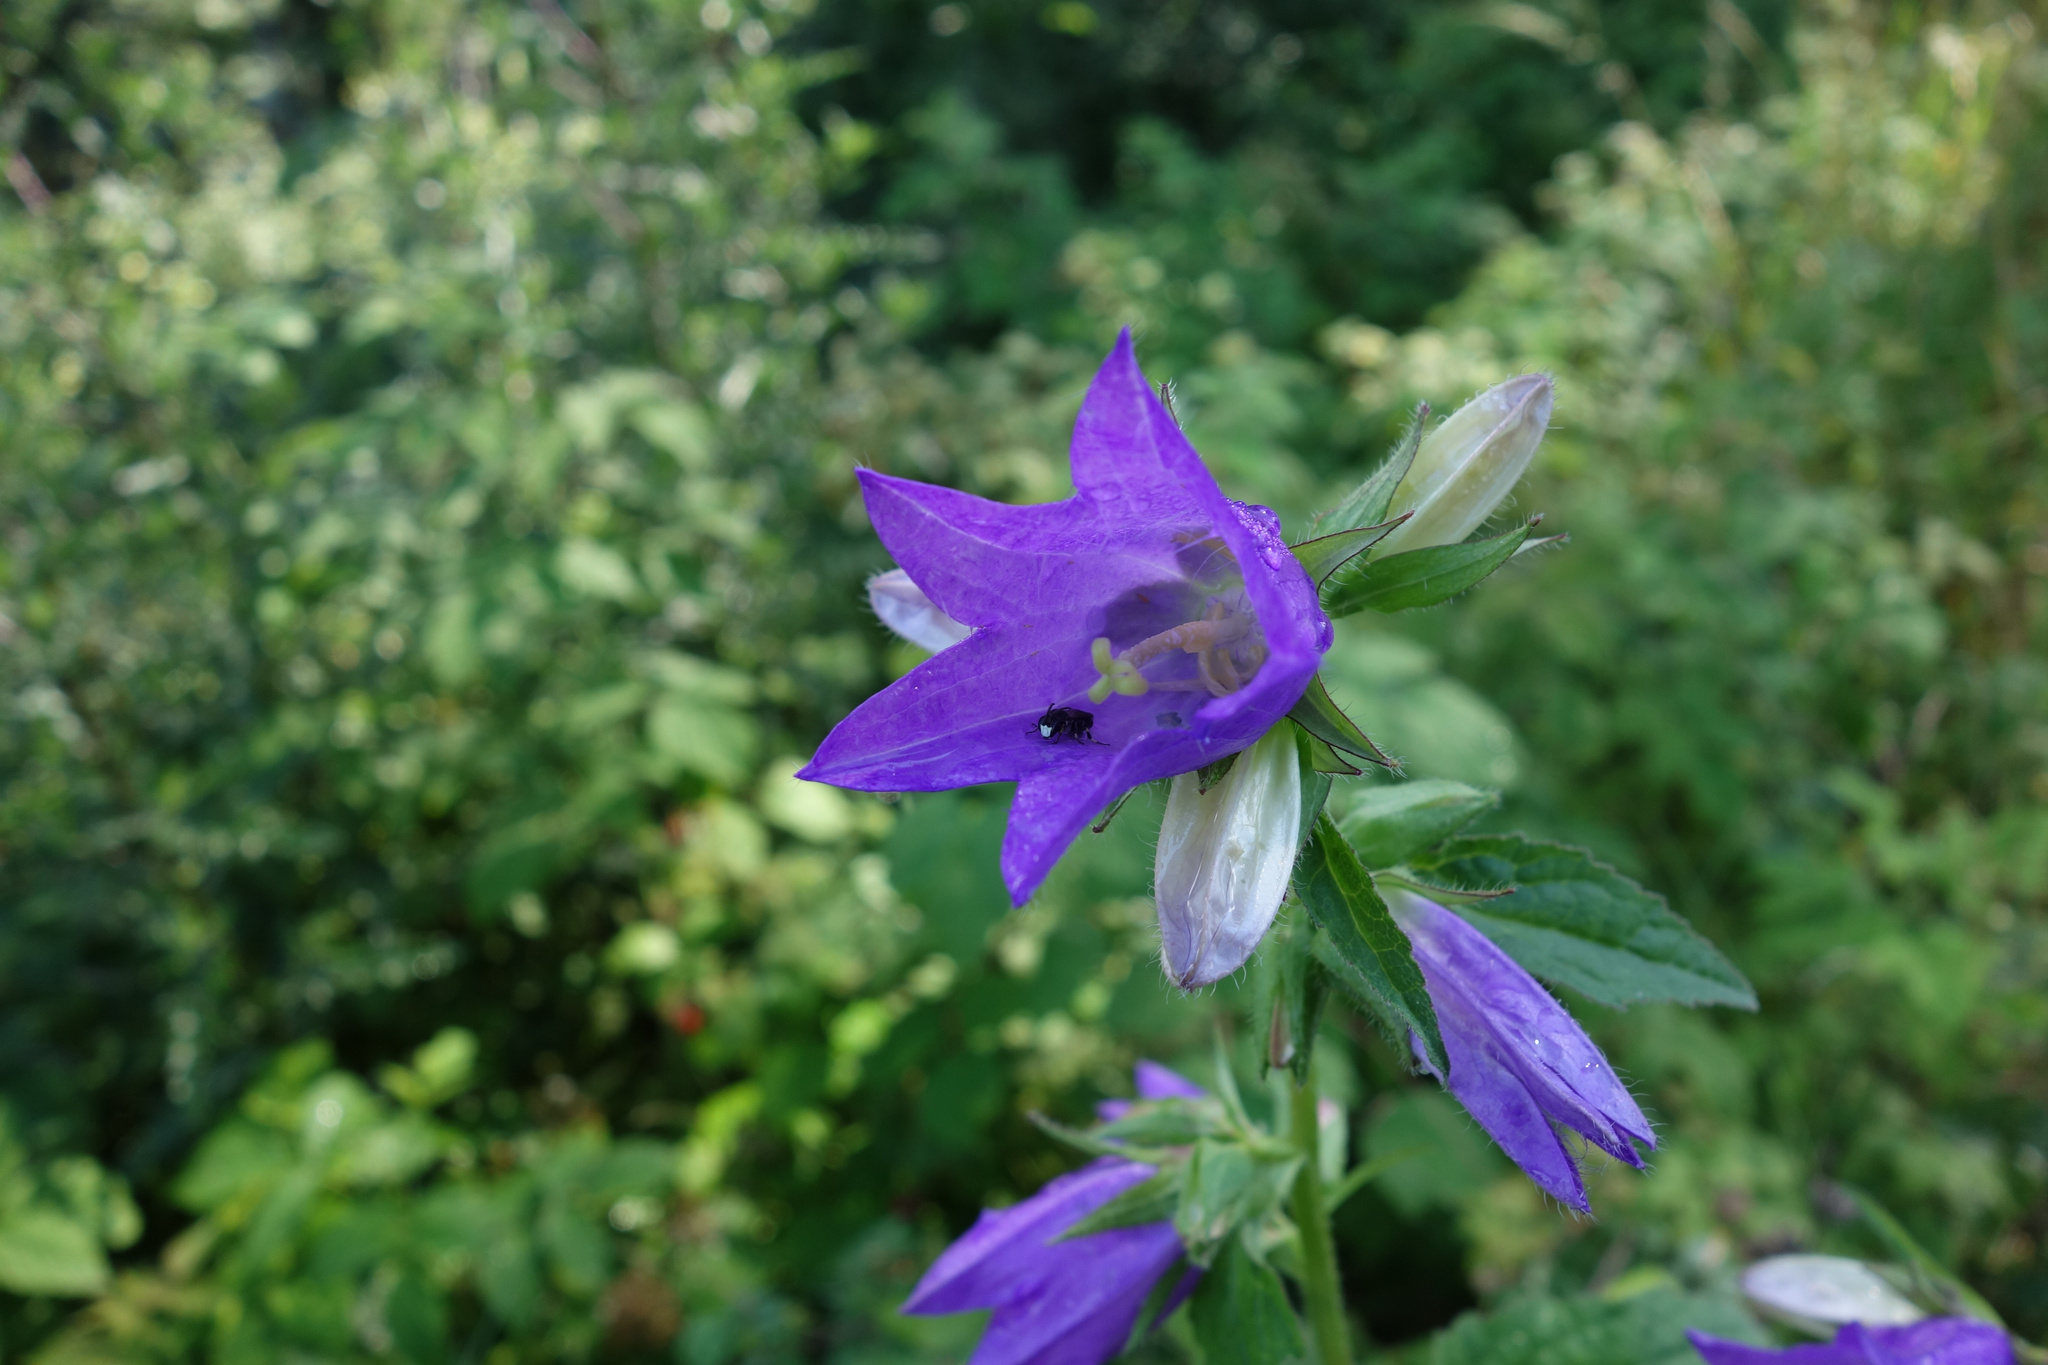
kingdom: Plantae
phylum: Tracheophyta
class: Magnoliopsida
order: Asterales
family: Campanulaceae
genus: Campanula
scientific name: Campanula trachelium
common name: Nettle-leaved bellflower
